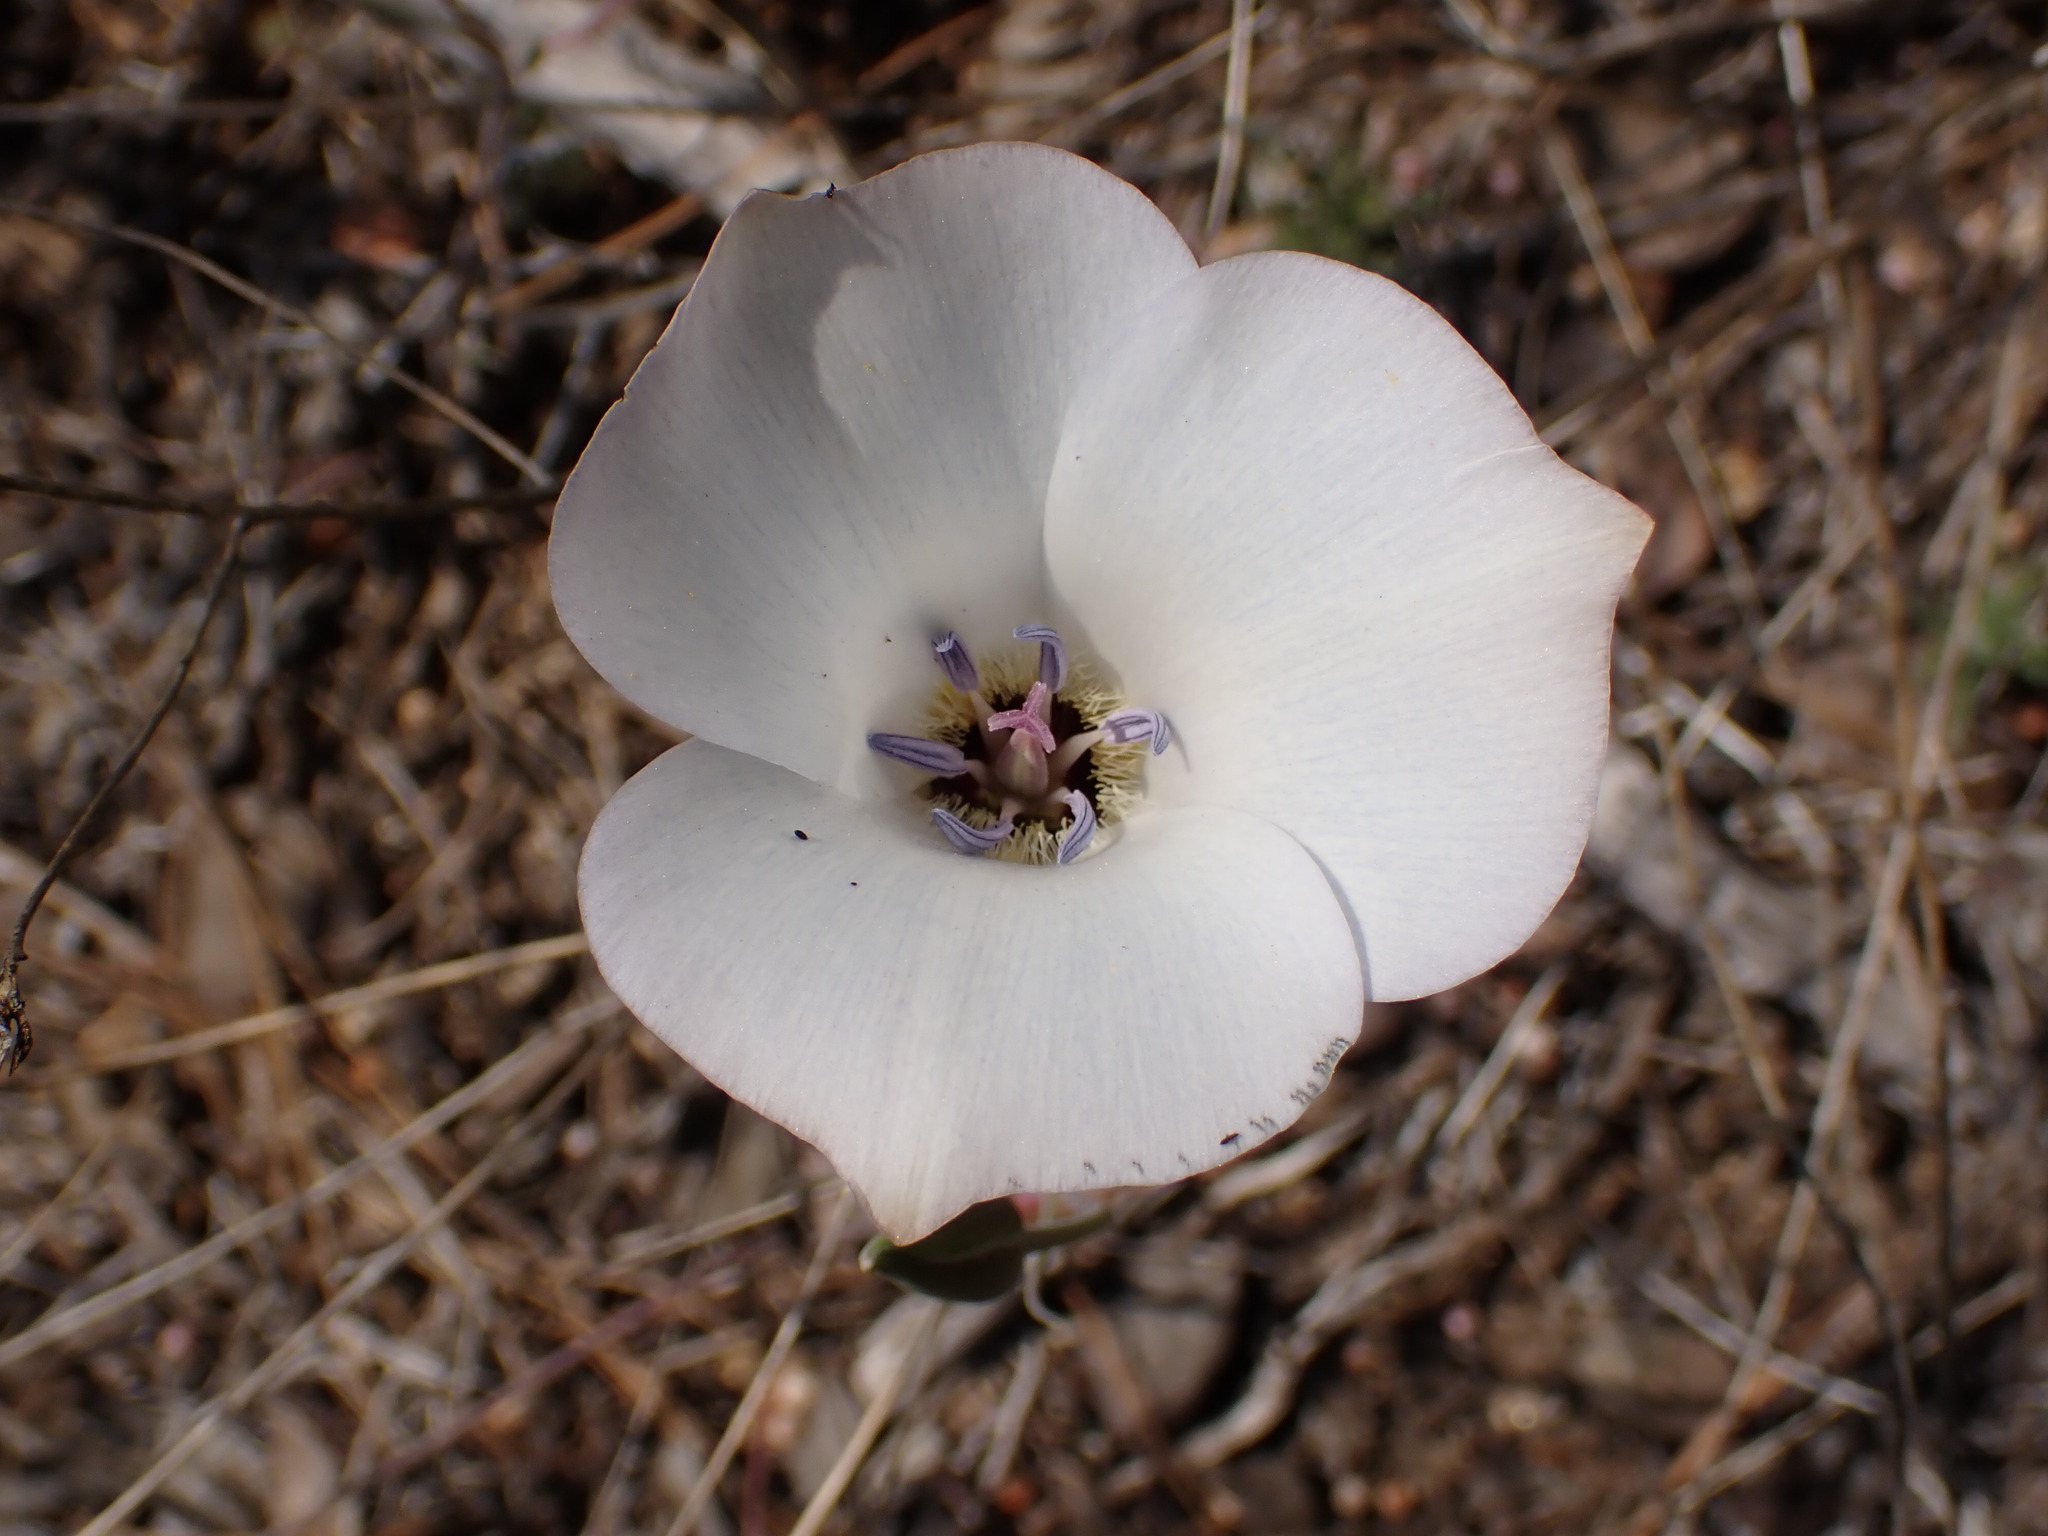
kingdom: Plantae
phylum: Tracheophyta
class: Liliopsida
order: Liliales
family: Liliaceae
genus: Calochortus
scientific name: Calochortus invenustus
